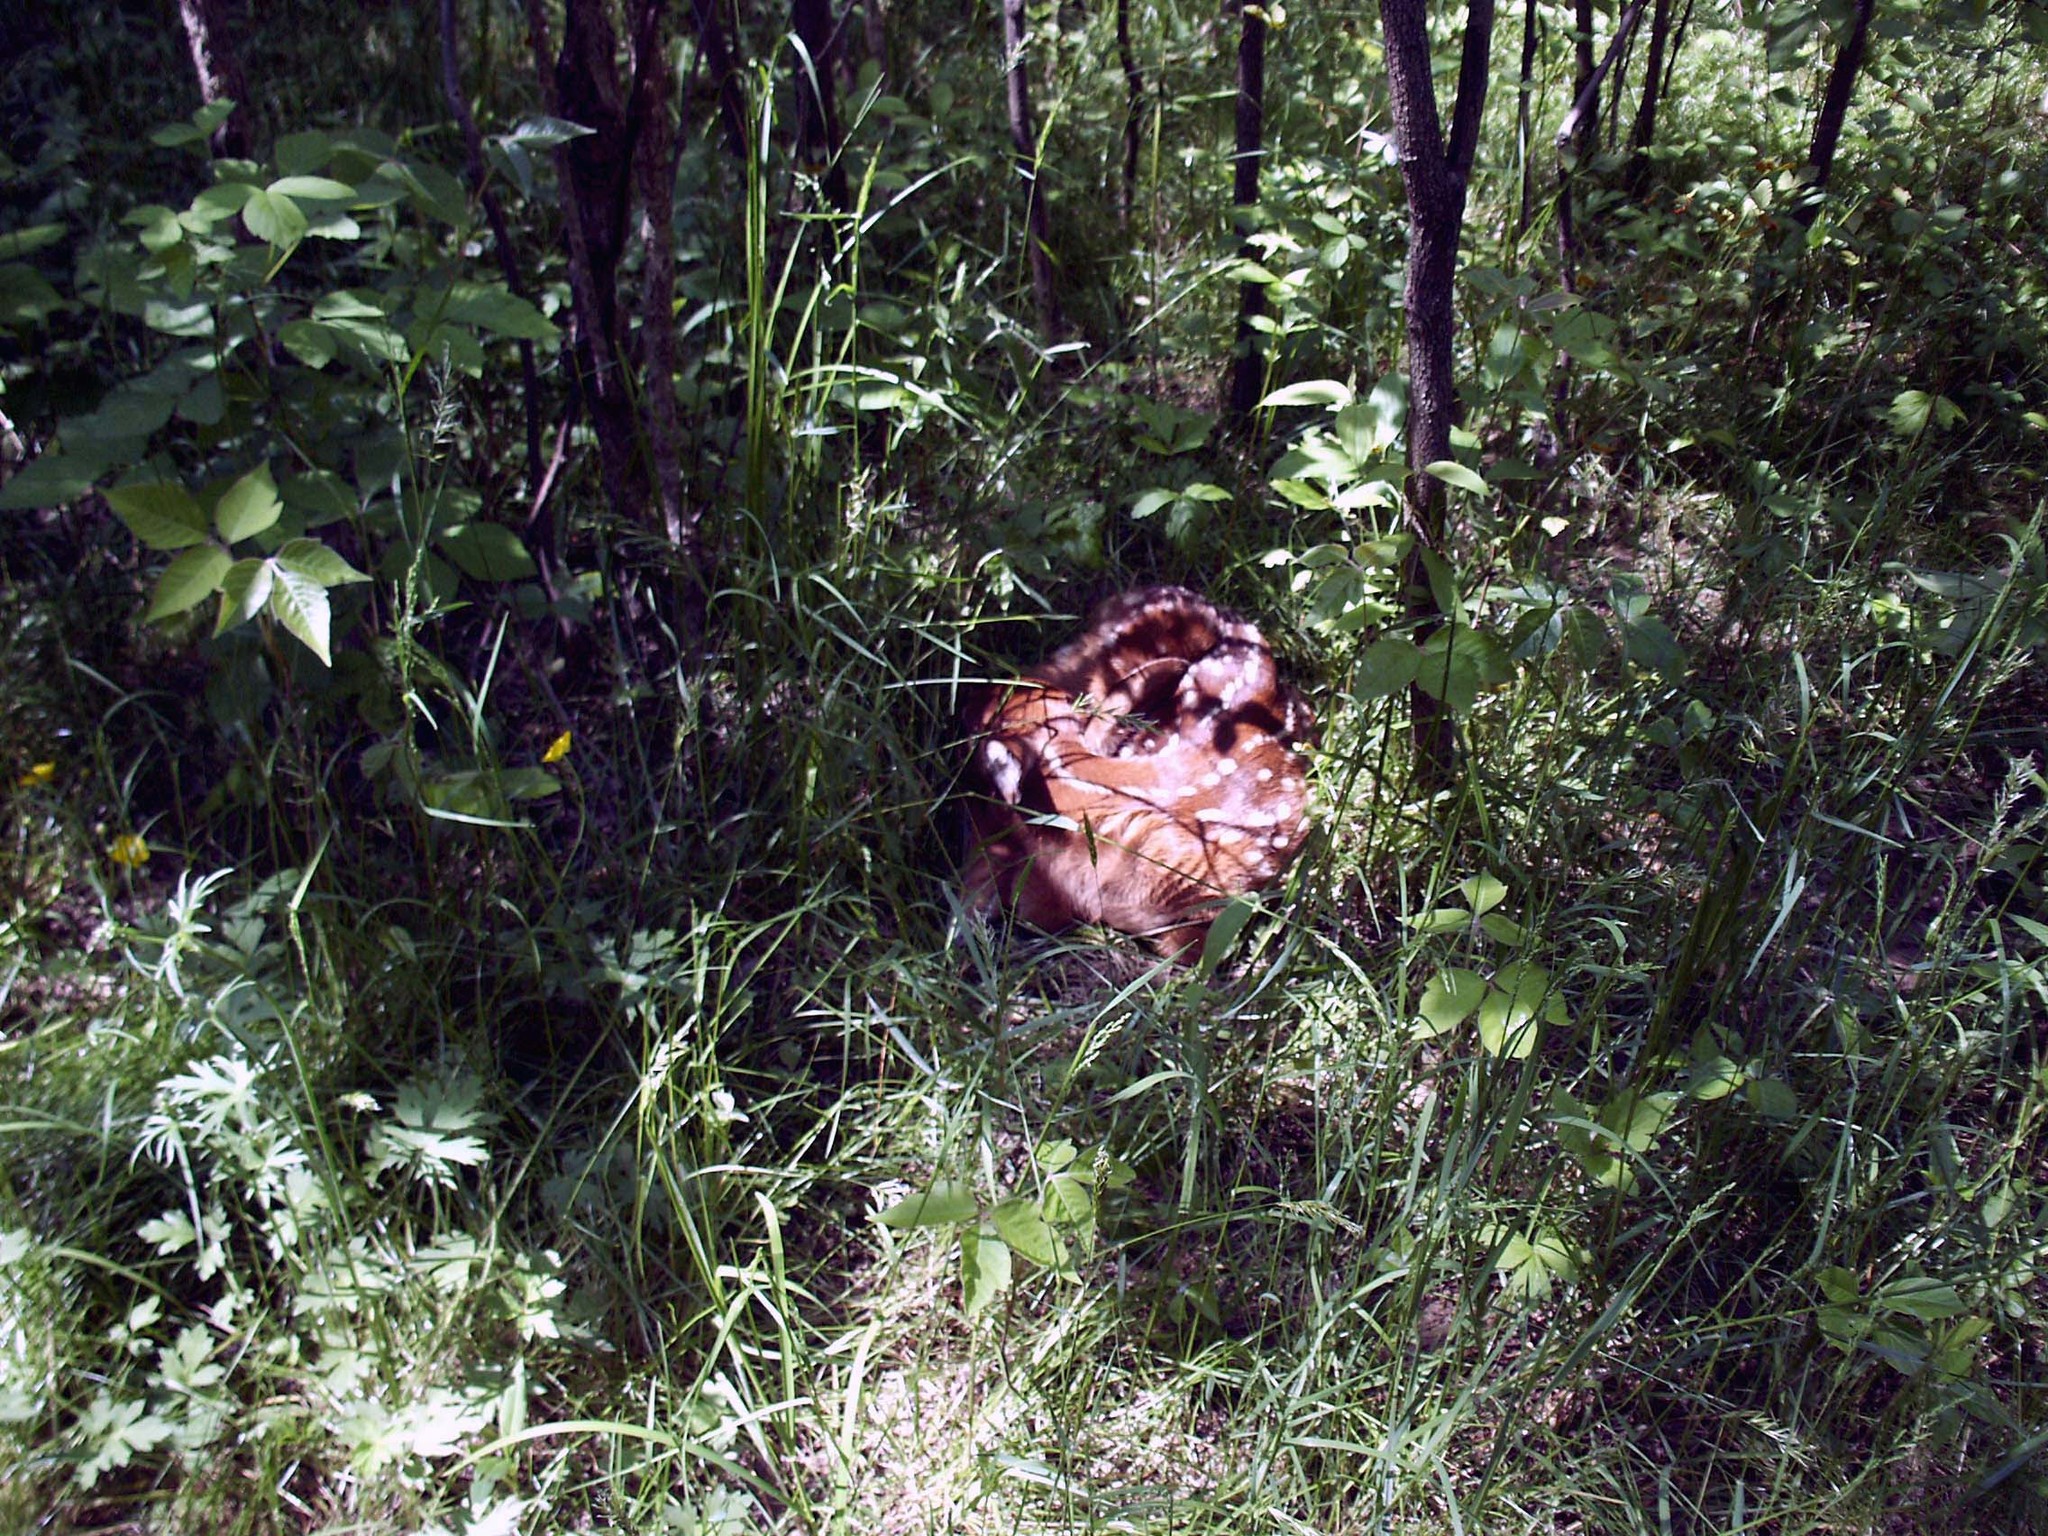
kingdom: Animalia
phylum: Chordata
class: Mammalia
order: Artiodactyla
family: Cervidae
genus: Odocoileus
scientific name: Odocoileus virginianus
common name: White-tailed deer
